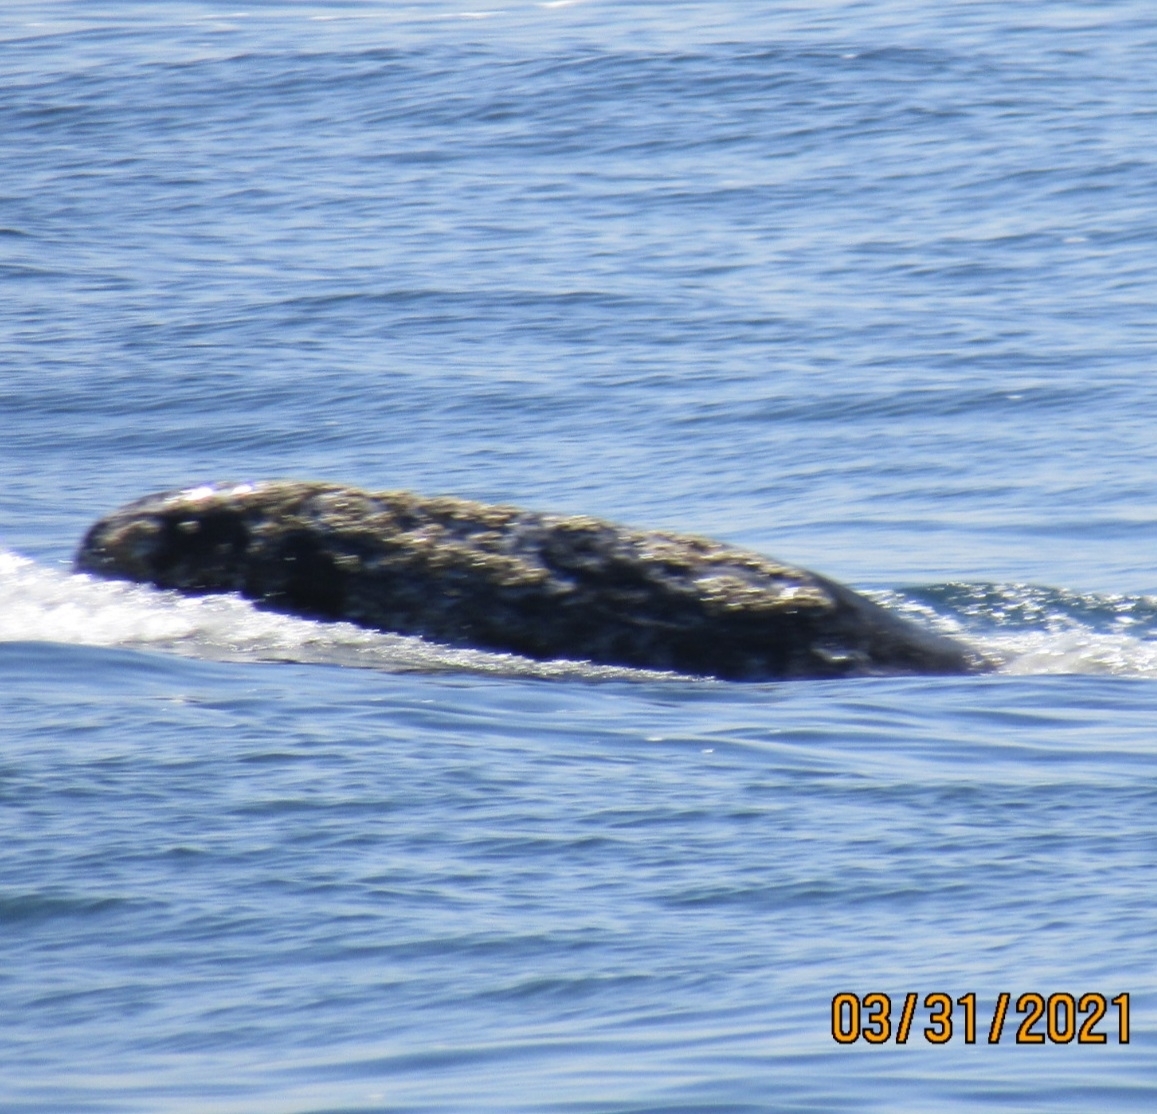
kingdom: Animalia
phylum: Chordata
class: Mammalia
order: Cetacea
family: Eschrichtiidae
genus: Eschrichtius
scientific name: Eschrichtius robustus
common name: Gray whale
